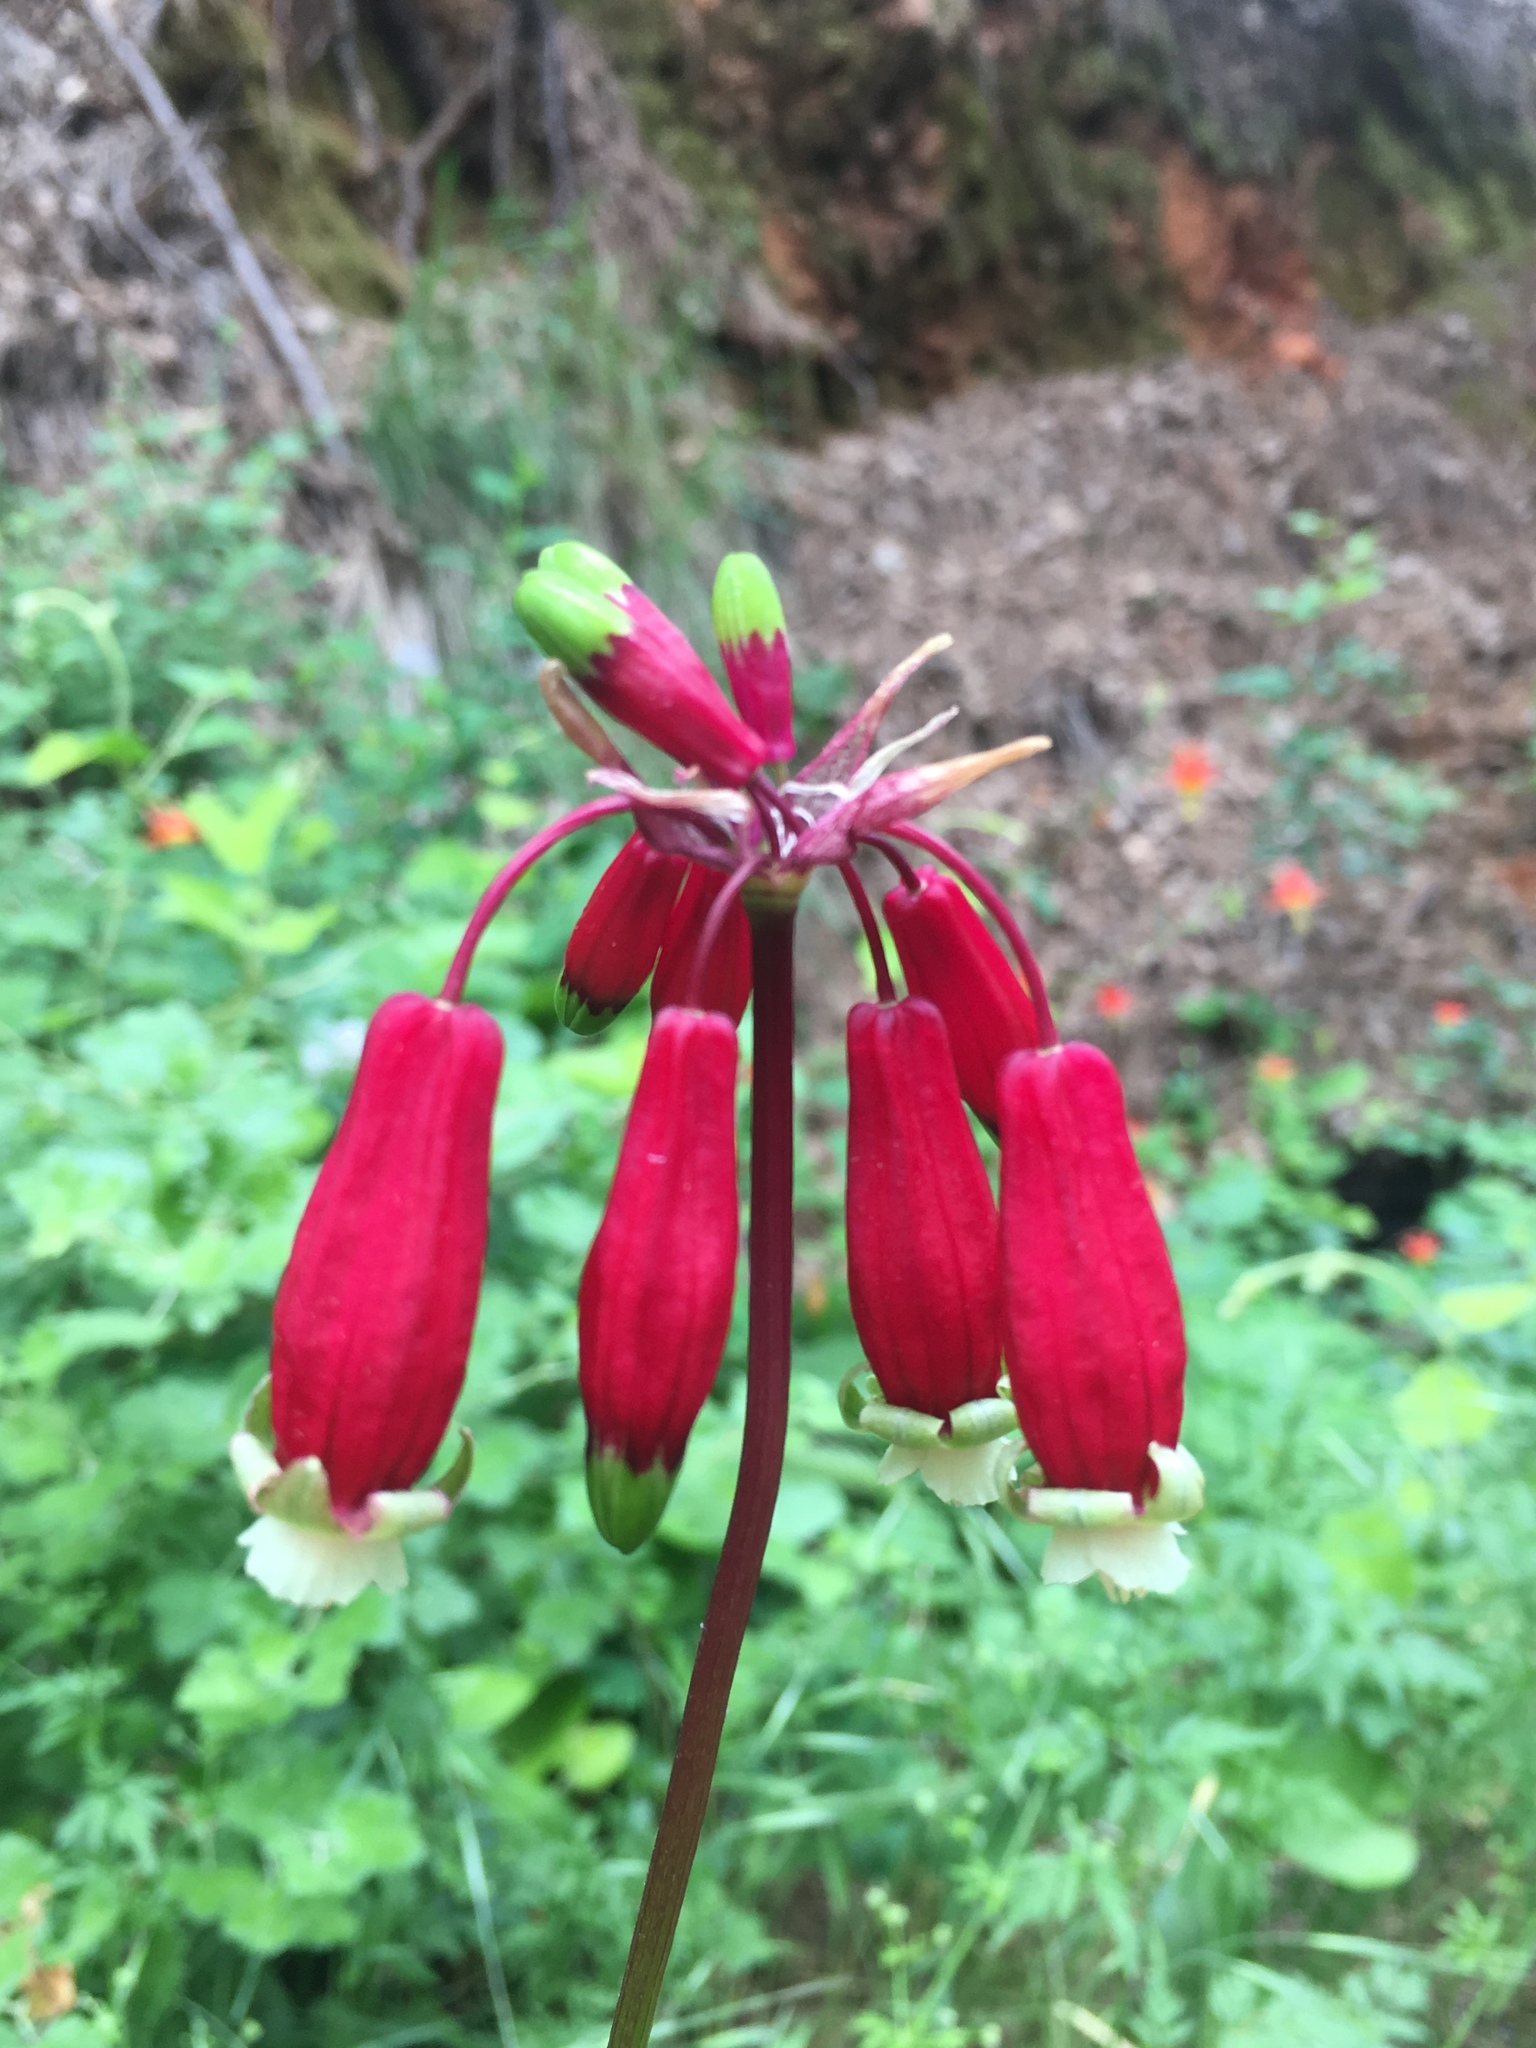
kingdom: Plantae
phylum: Tracheophyta
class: Liliopsida
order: Asparagales
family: Asparagaceae
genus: Dichelostemma
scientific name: Dichelostemma ida-maia
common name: Firecracker-flower
